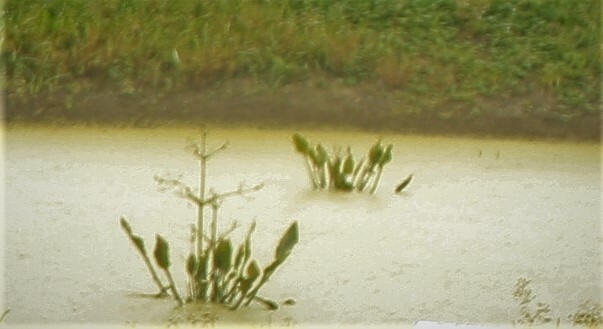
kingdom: Plantae
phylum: Tracheophyta
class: Liliopsida
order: Alismatales
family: Alismataceae
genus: Alisma
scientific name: Alisma plantago-aquatica
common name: Water-plantain
